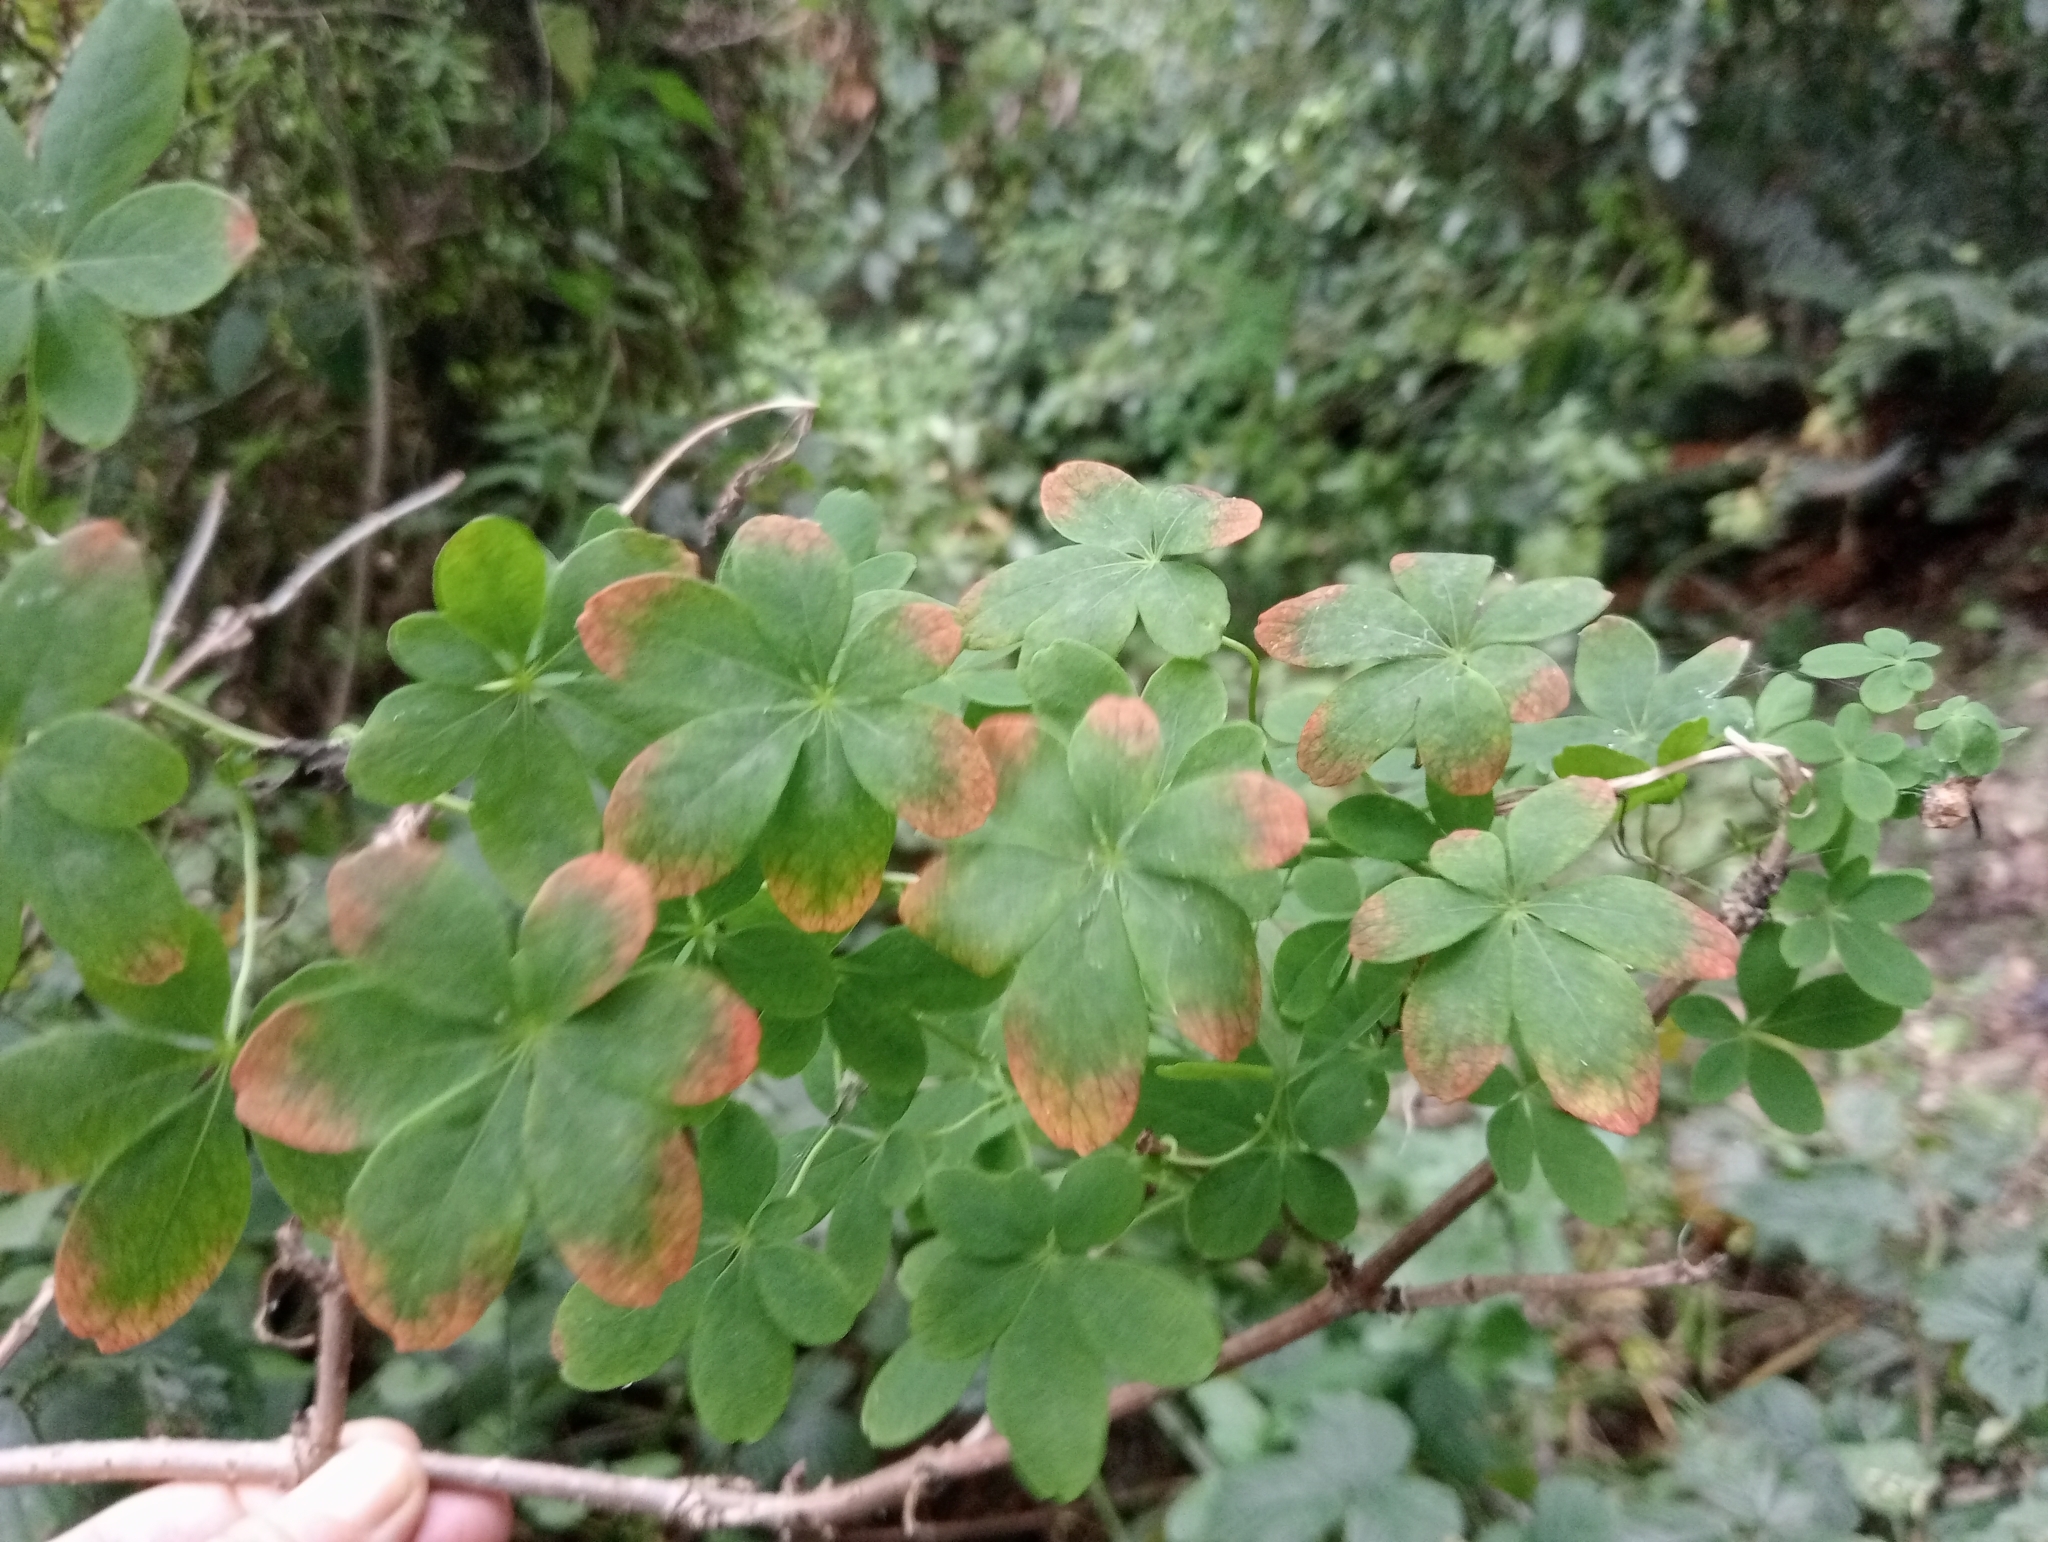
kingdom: Plantae
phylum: Tracheophyta
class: Magnoliopsida
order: Brassicales
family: Tropaeolaceae
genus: Tropaeolum
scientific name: Tropaeolum speciosum
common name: Flame nasturtium
